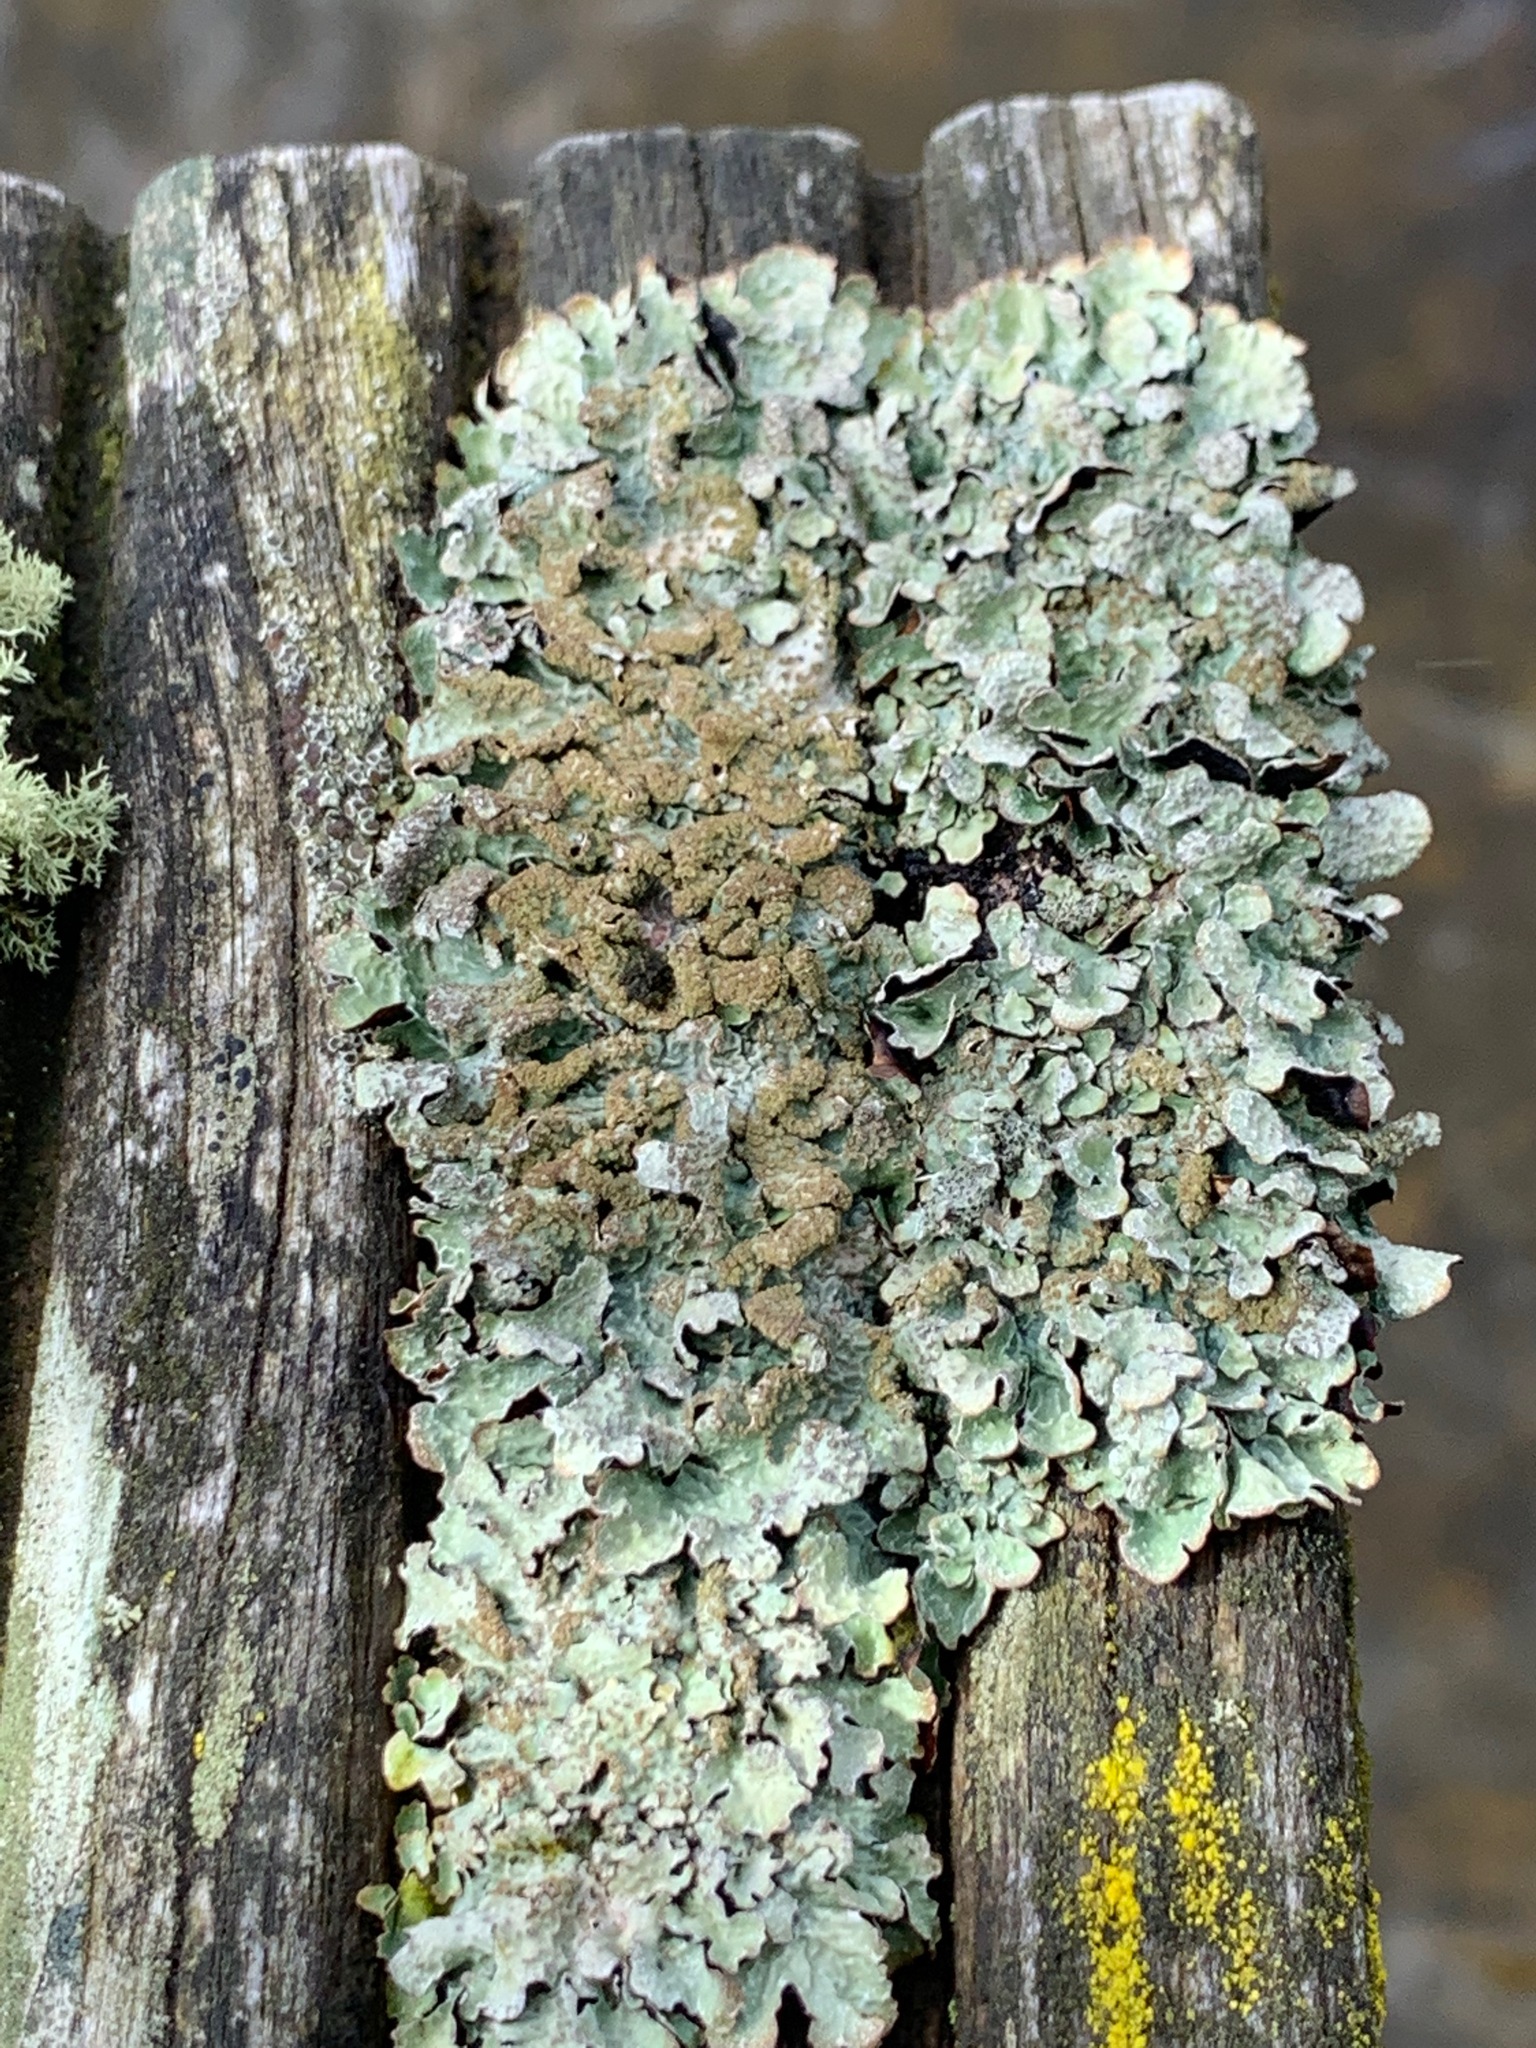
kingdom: Fungi
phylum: Ascomycota
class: Lecanoromycetes
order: Lecanorales
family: Parmeliaceae
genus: Parmelia
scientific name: Parmelia sulcata
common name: Netted shield lichen
